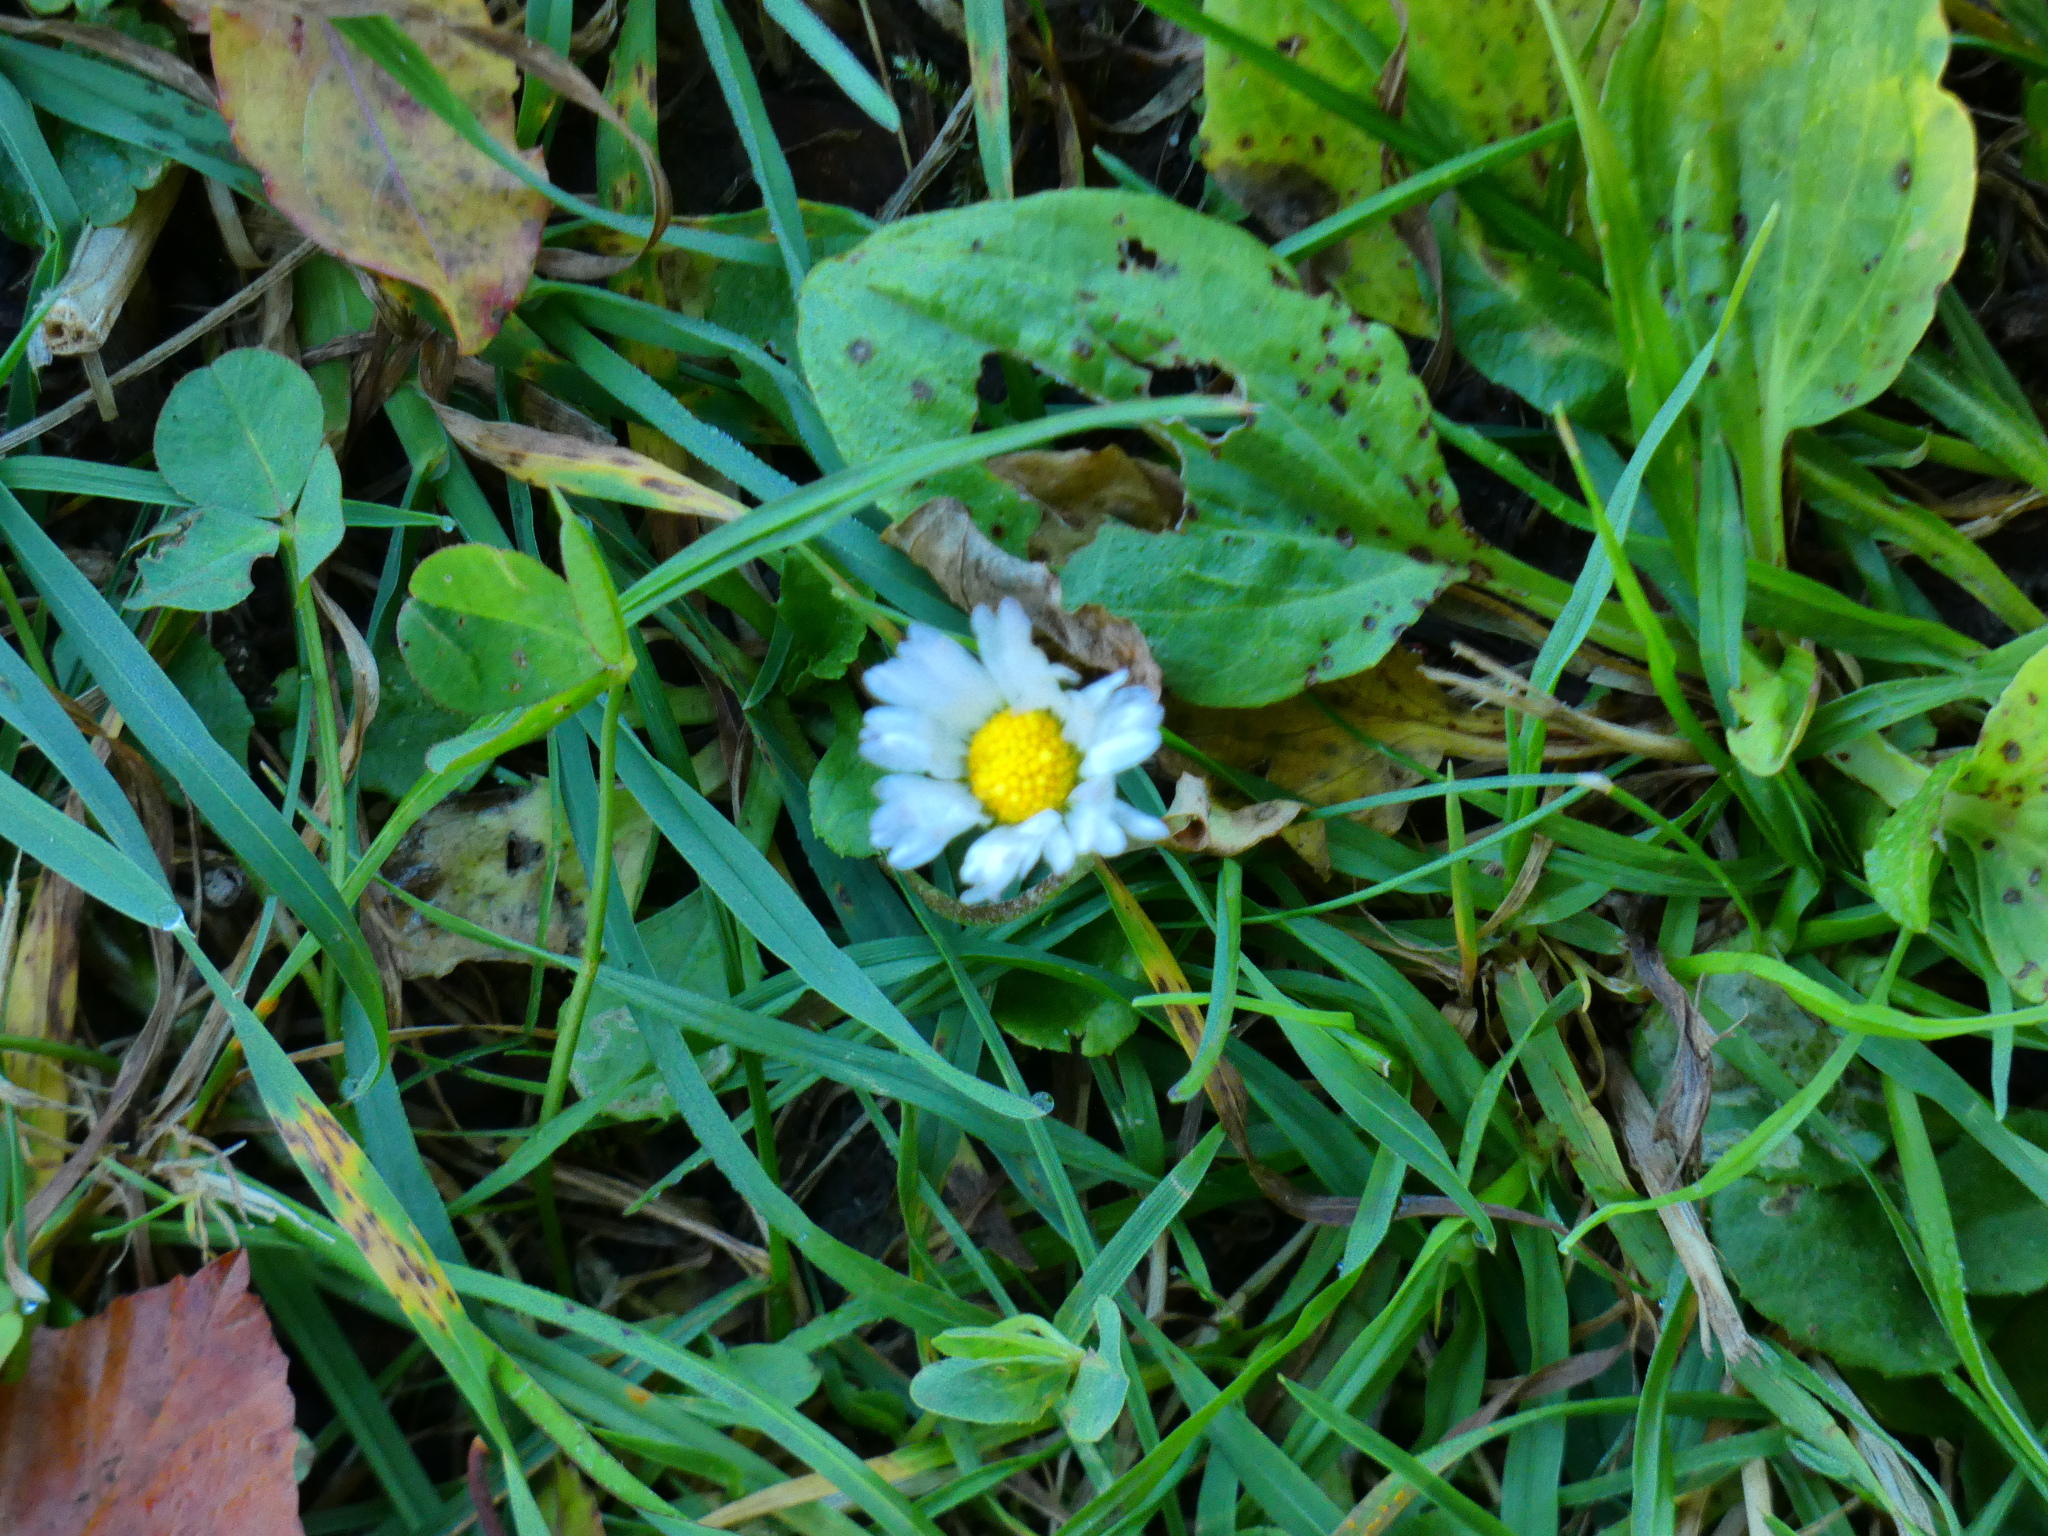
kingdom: Plantae
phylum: Tracheophyta
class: Magnoliopsida
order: Asterales
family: Asteraceae
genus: Bellis
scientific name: Bellis perennis
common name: Lawndaisy
